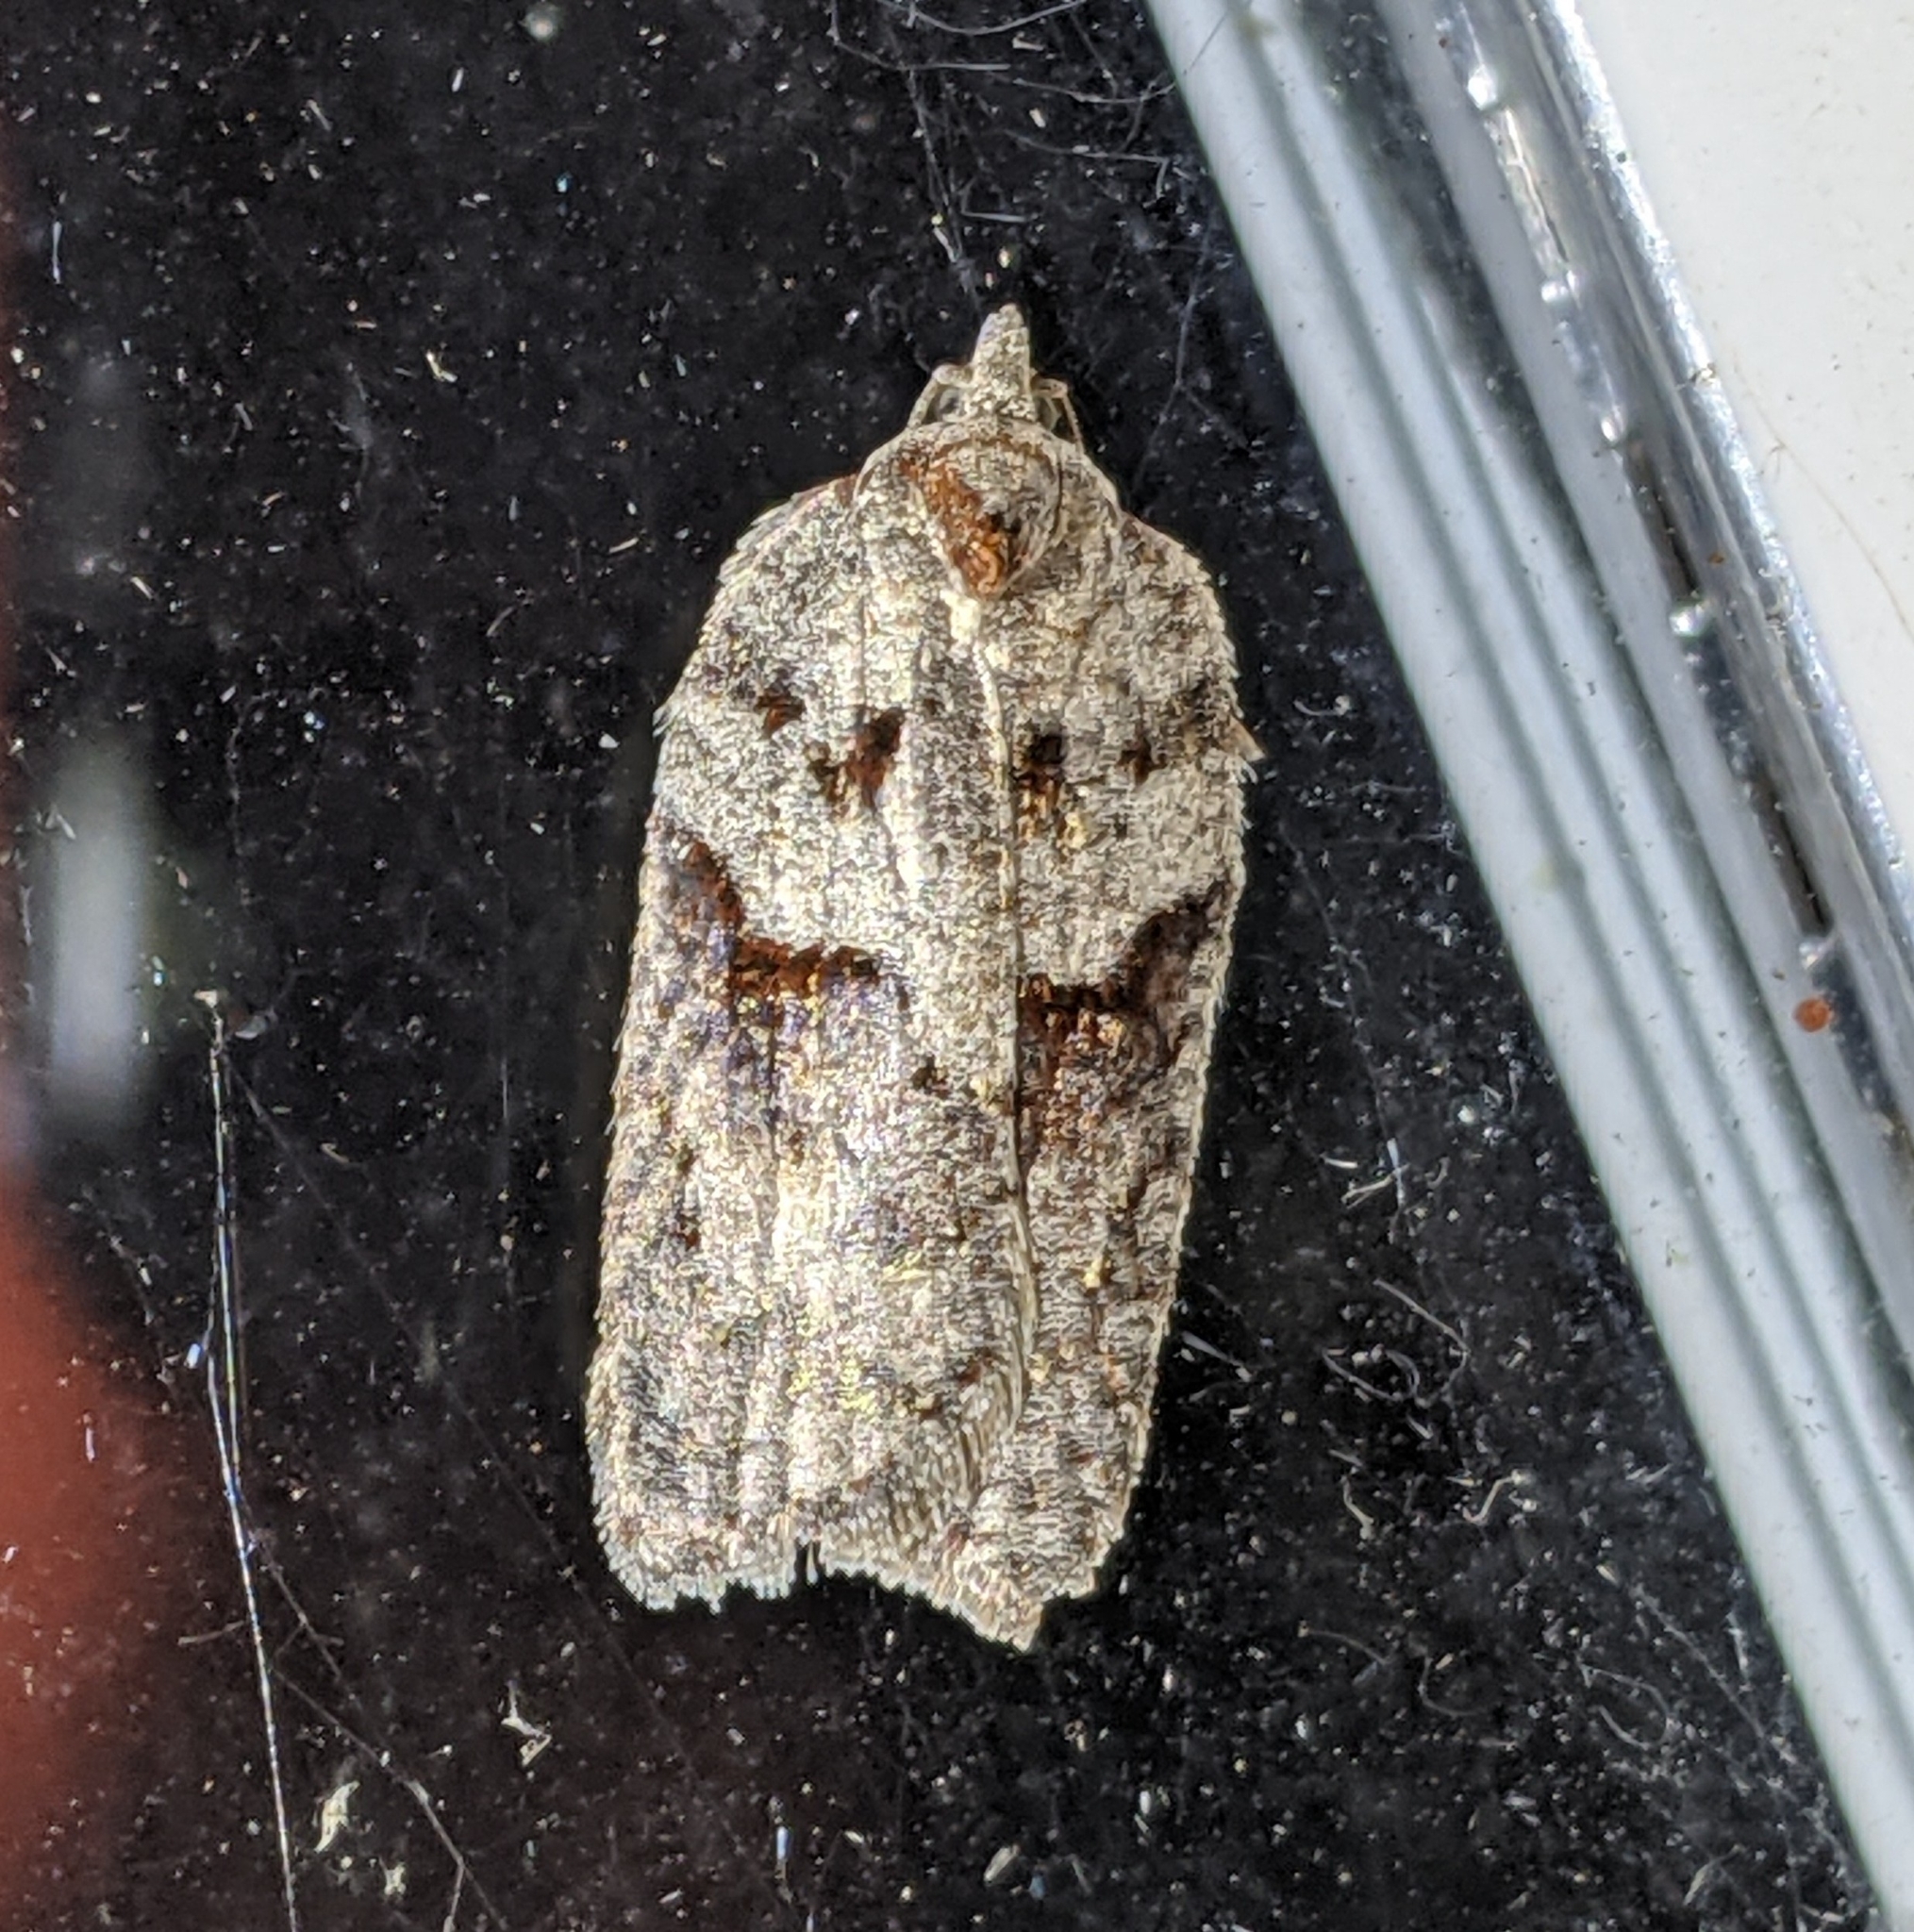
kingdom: Animalia
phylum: Arthropoda
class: Insecta
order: Lepidoptera
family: Tortricidae
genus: Acleris
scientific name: Acleris maximana
